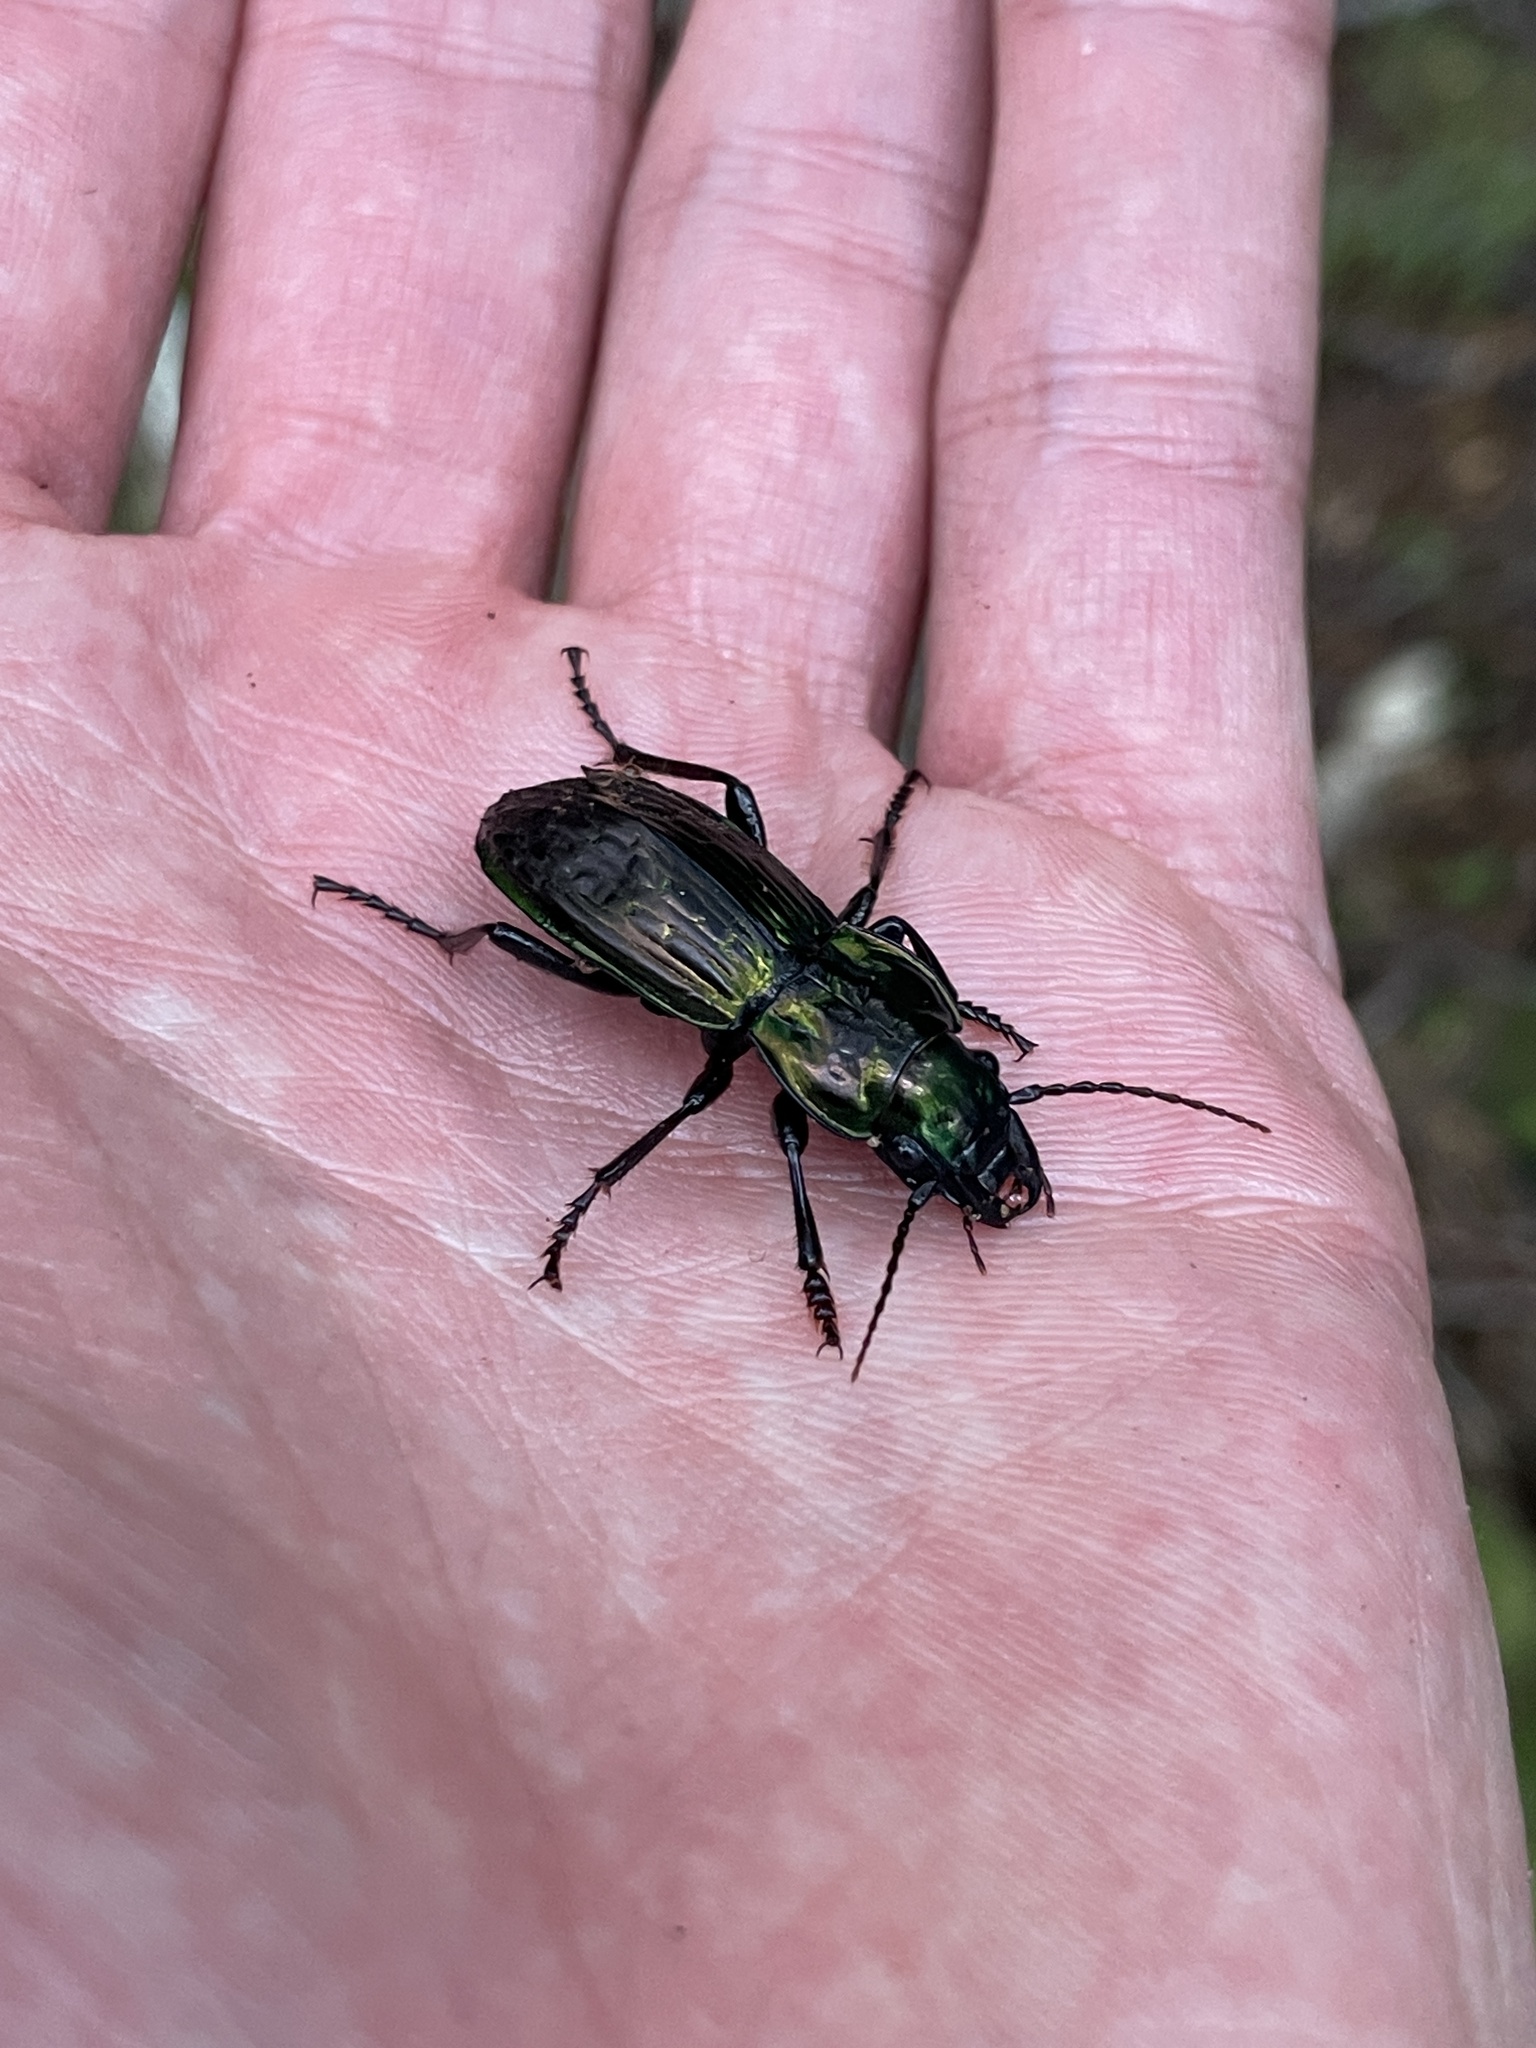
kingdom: Animalia
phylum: Arthropoda
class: Insecta
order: Coleoptera
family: Carabidae
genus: Megadromus
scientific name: Megadromus bullatus
